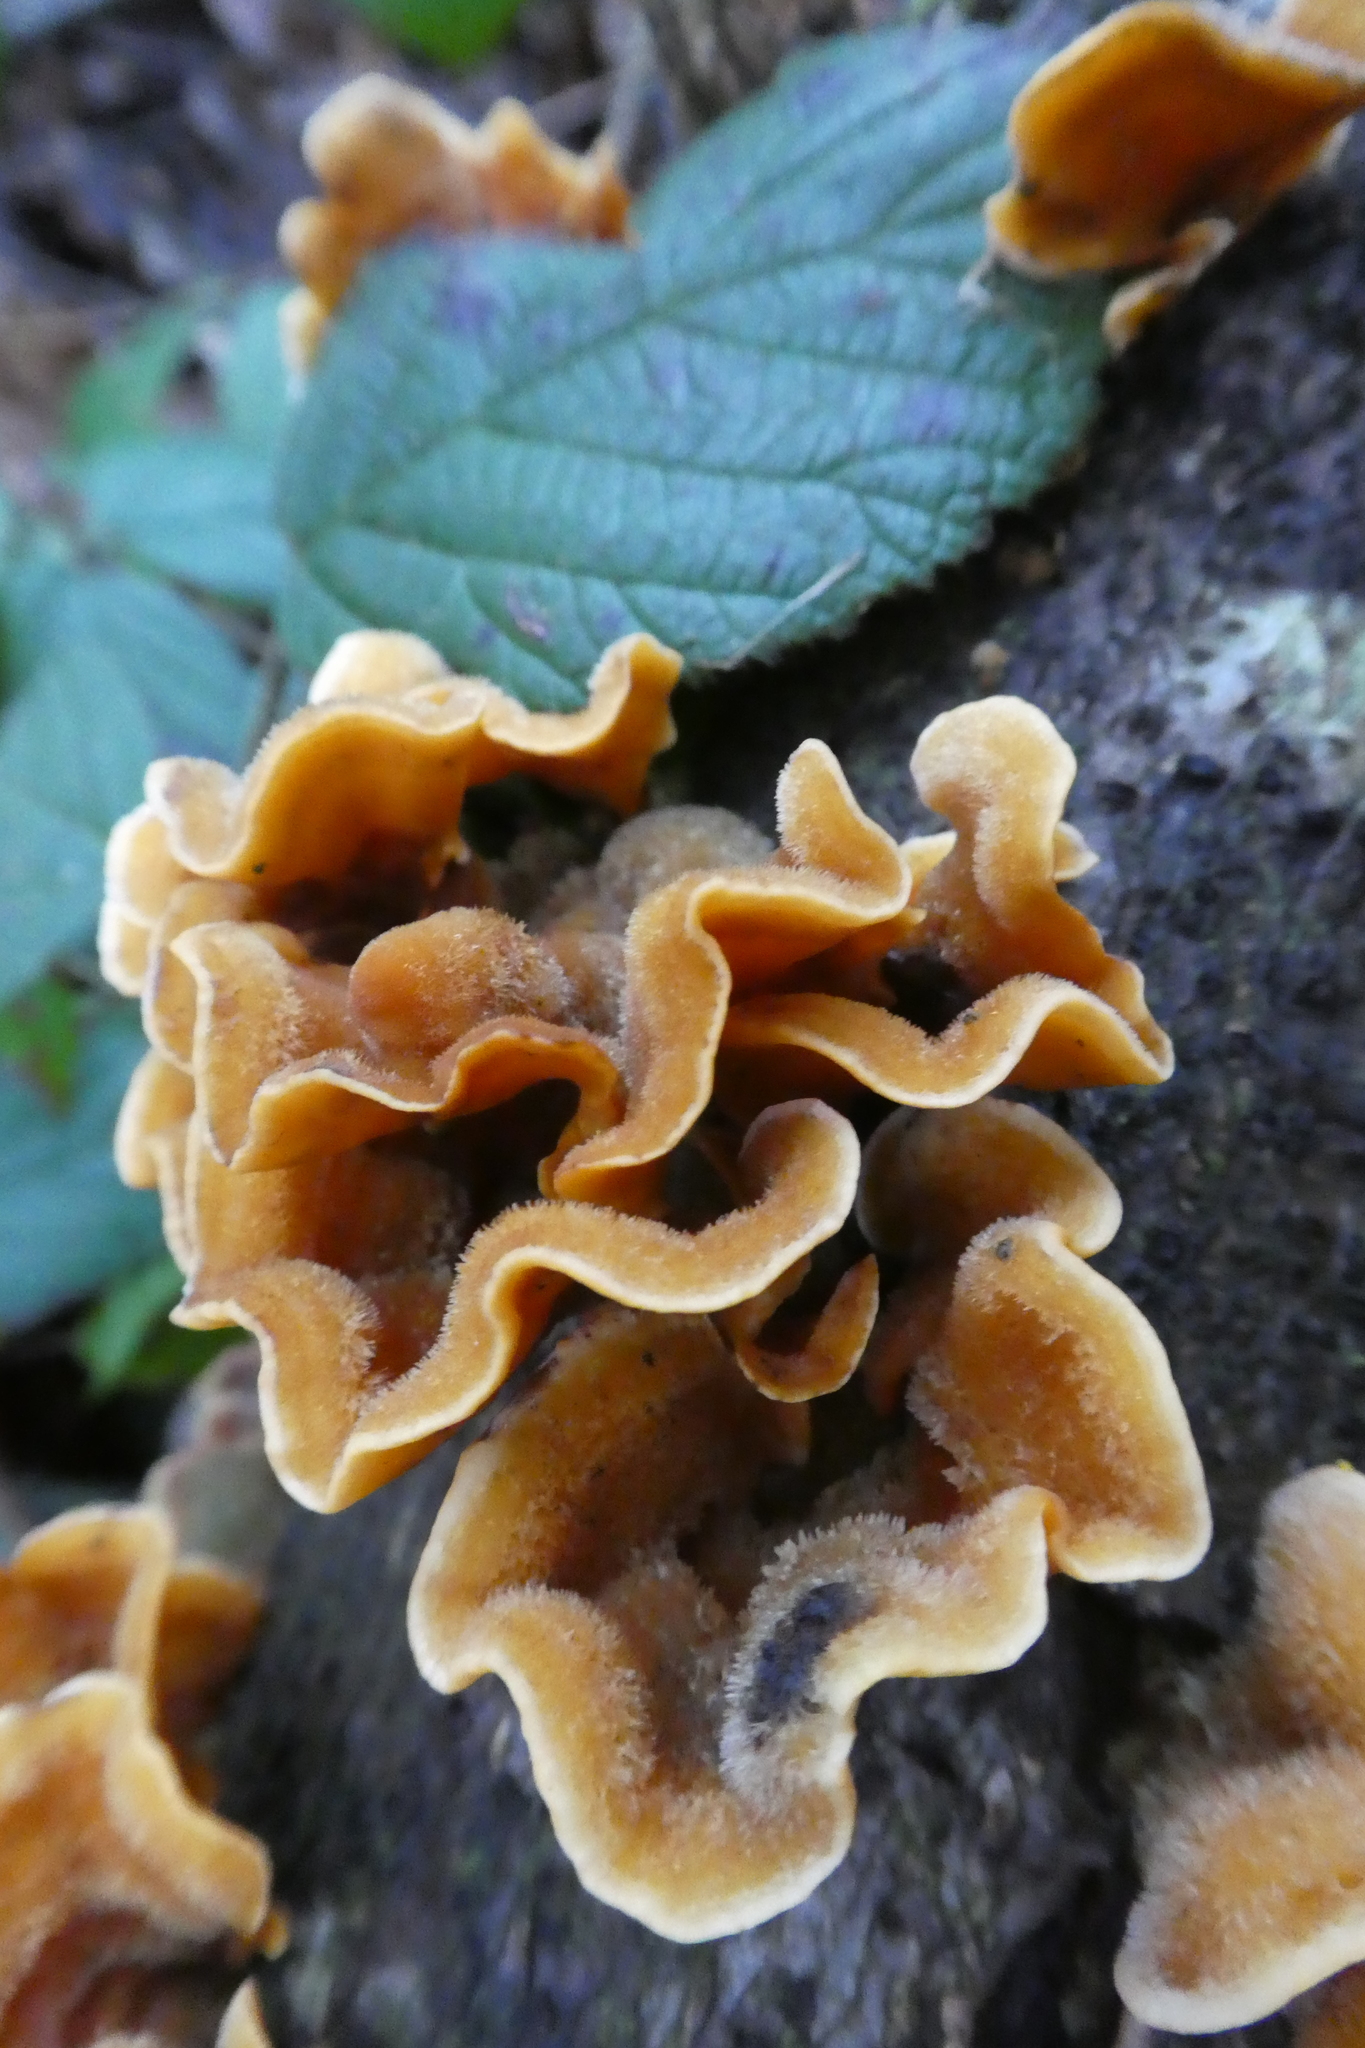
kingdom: Fungi
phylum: Basidiomycota
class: Agaricomycetes
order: Russulales
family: Stereaceae
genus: Stereum
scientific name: Stereum hirsutum
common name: Hairy curtain crust
